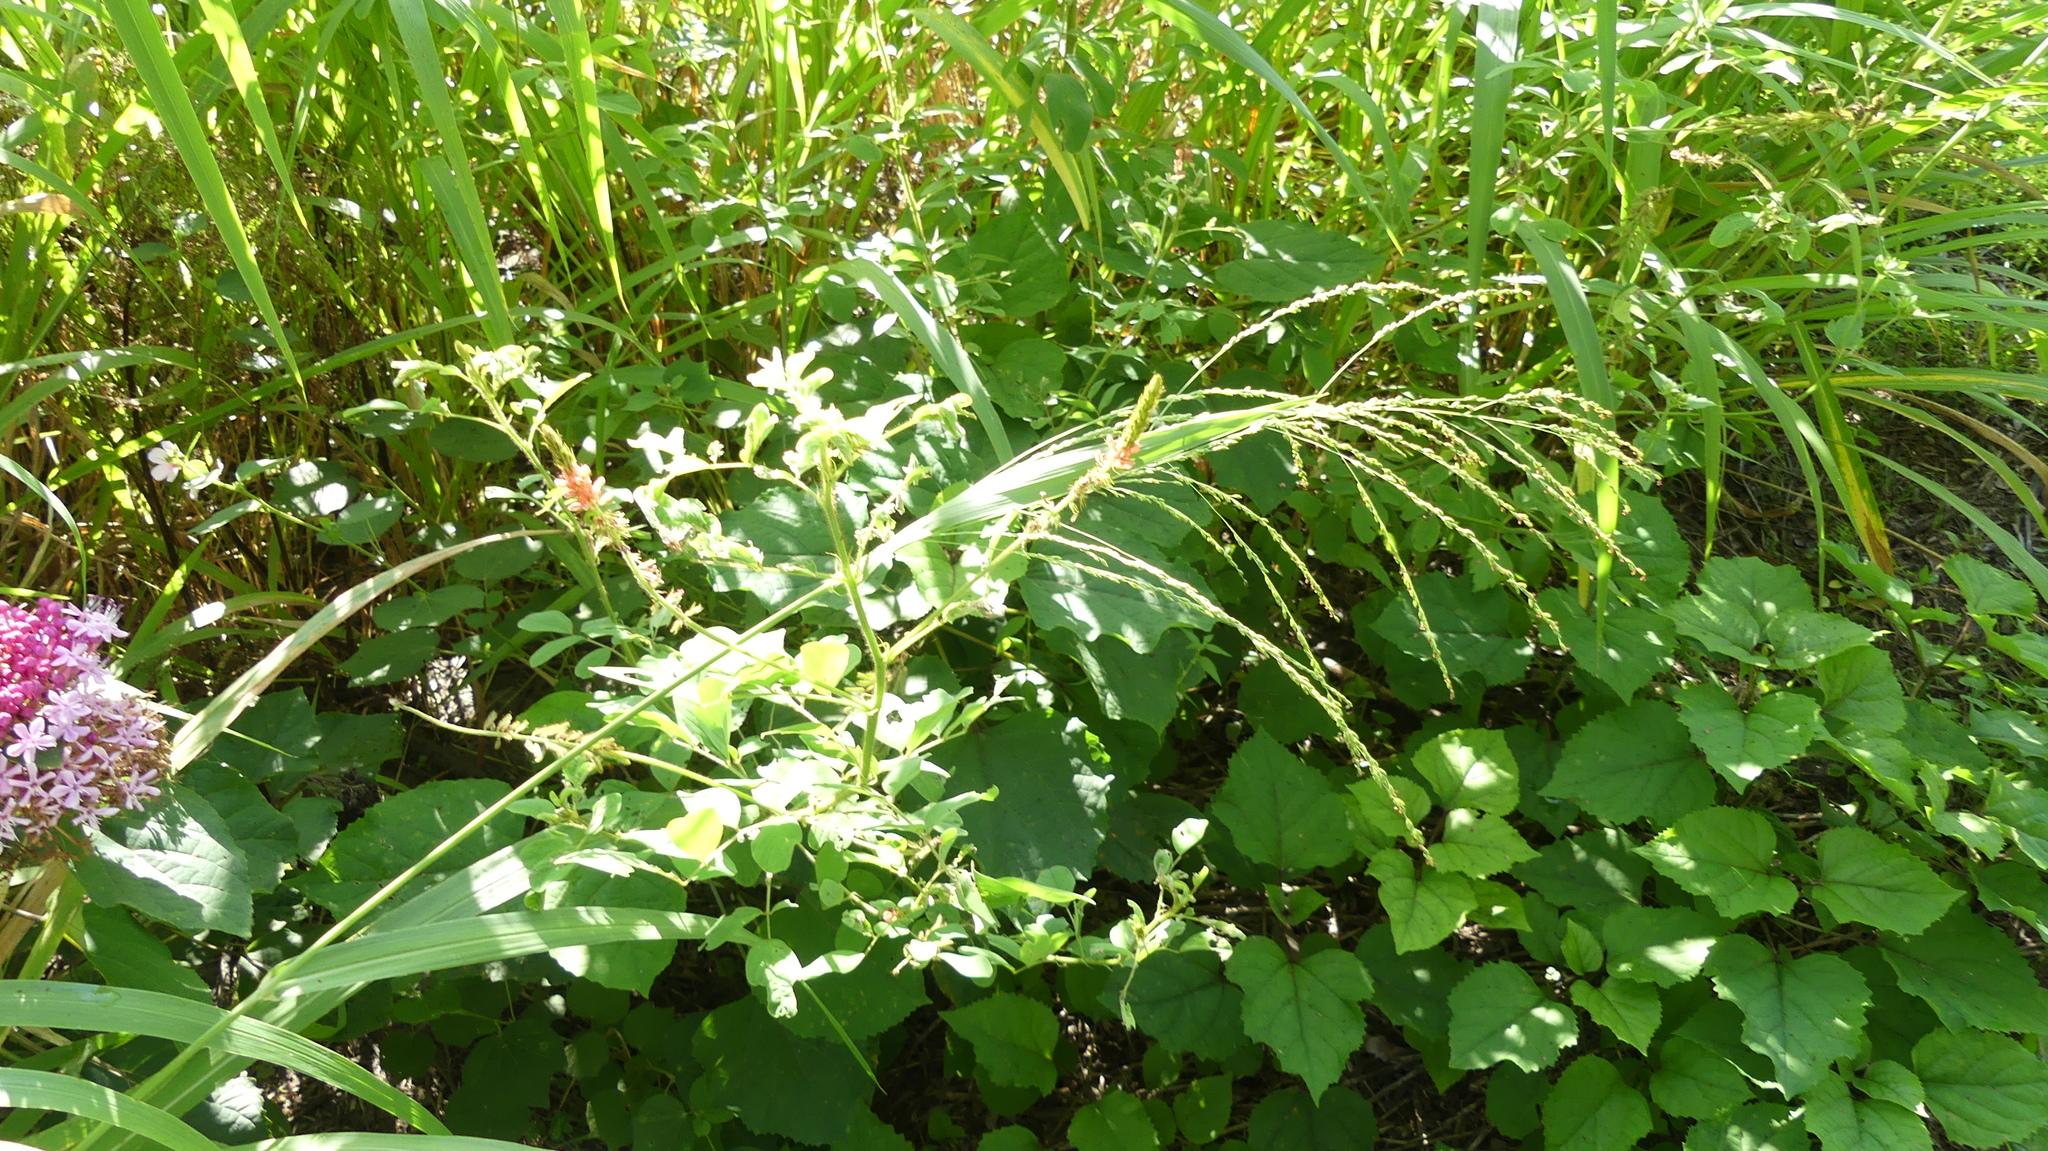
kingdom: Plantae
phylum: Tracheophyta
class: Magnoliopsida
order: Fabales
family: Fabaceae
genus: Indigofera
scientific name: Indigofera hirsuta
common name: Hairy indigo
